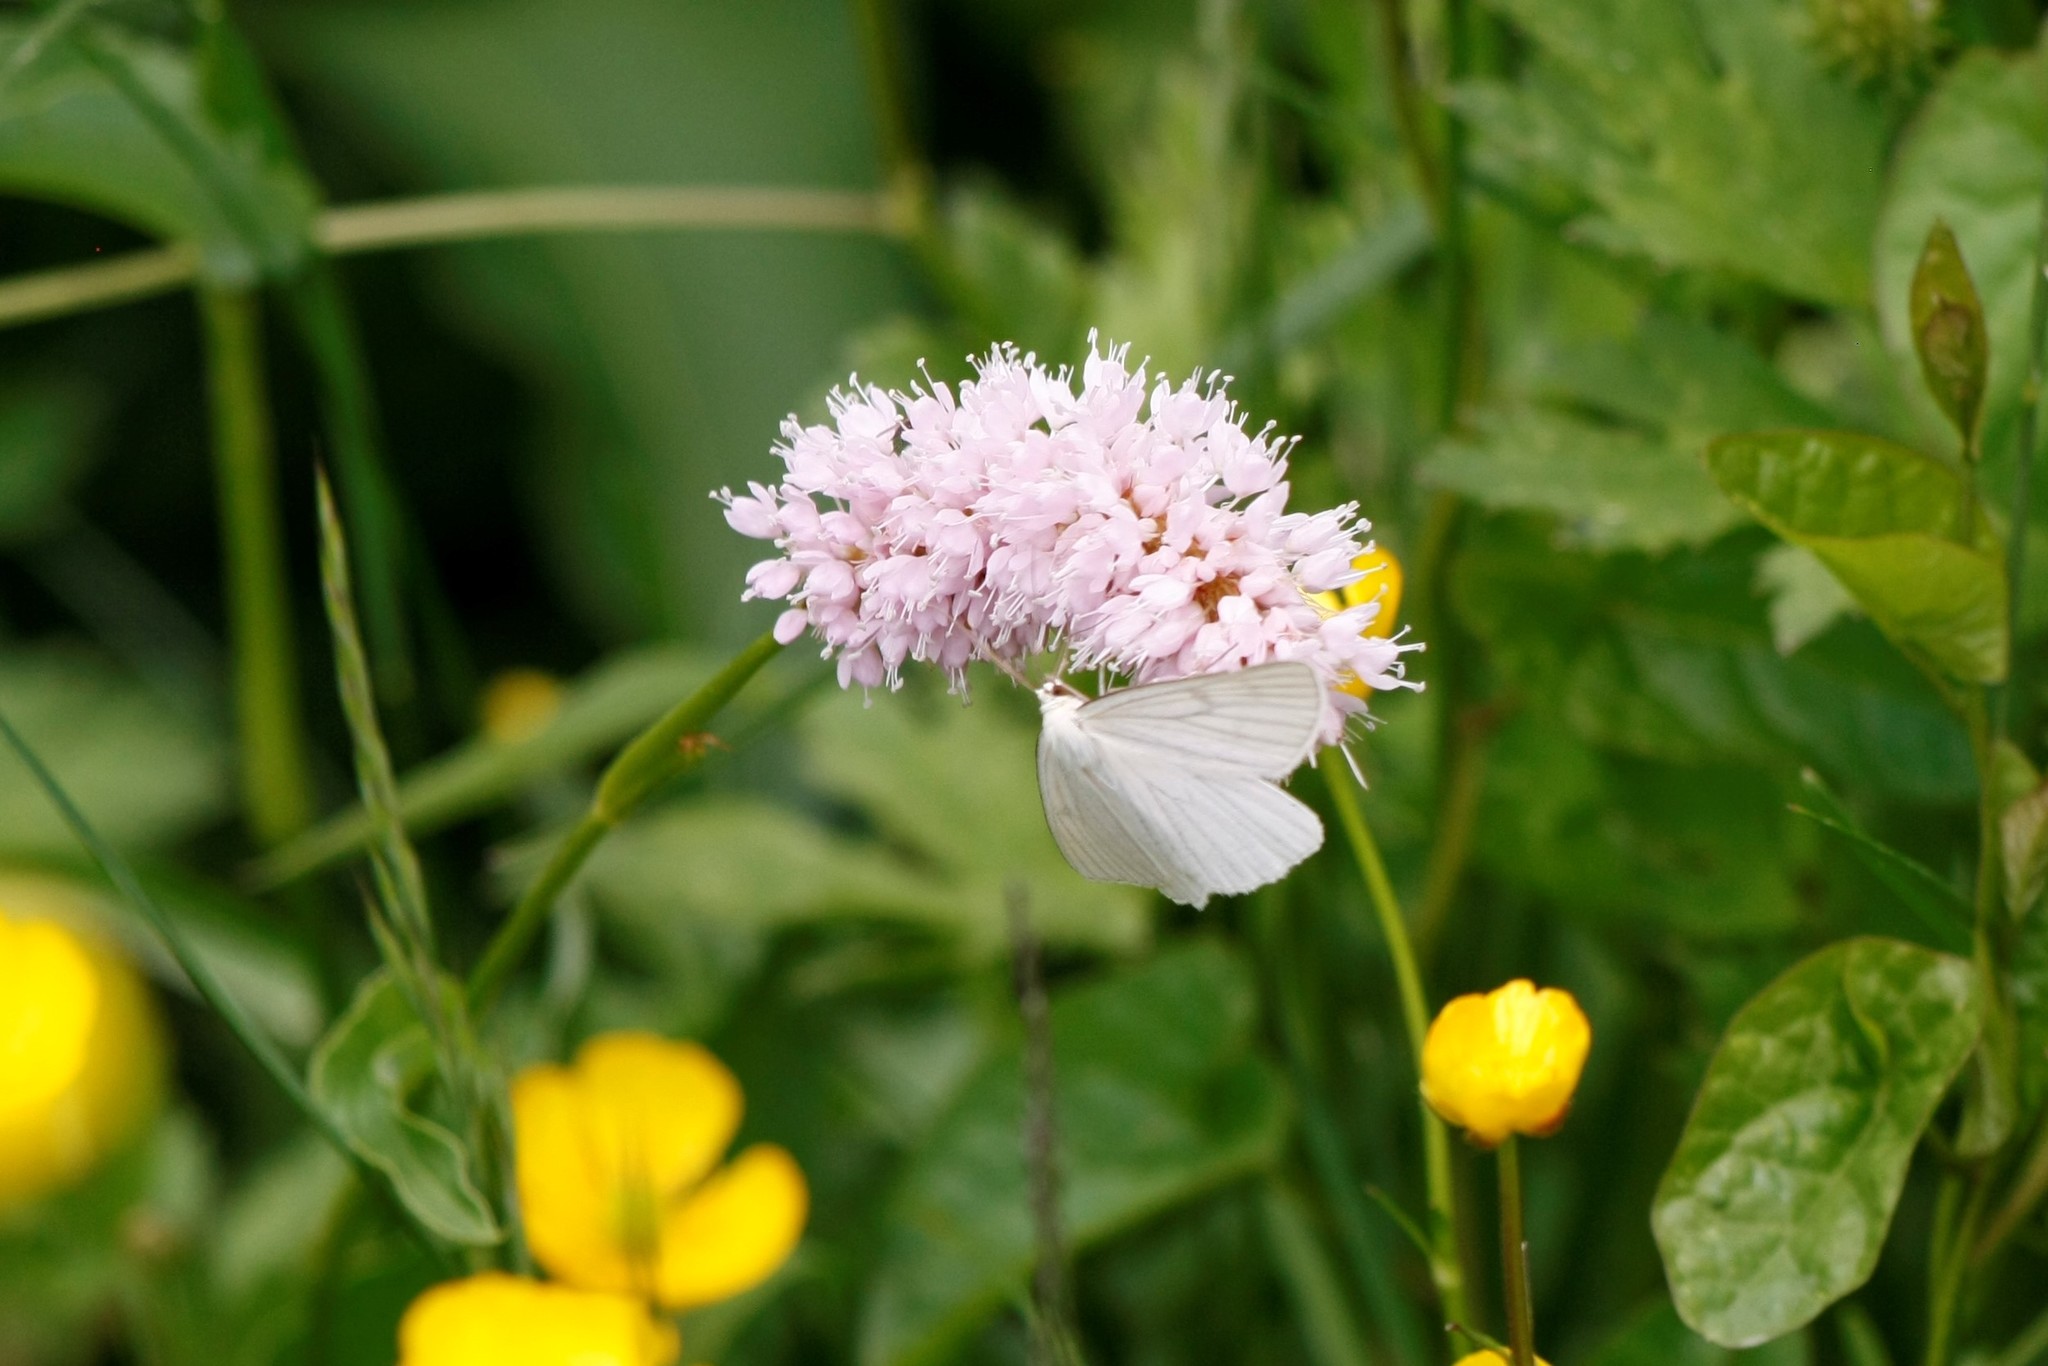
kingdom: Animalia
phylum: Arthropoda
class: Insecta
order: Lepidoptera
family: Geometridae
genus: Siona
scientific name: Siona lineata
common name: Black-veined moth
